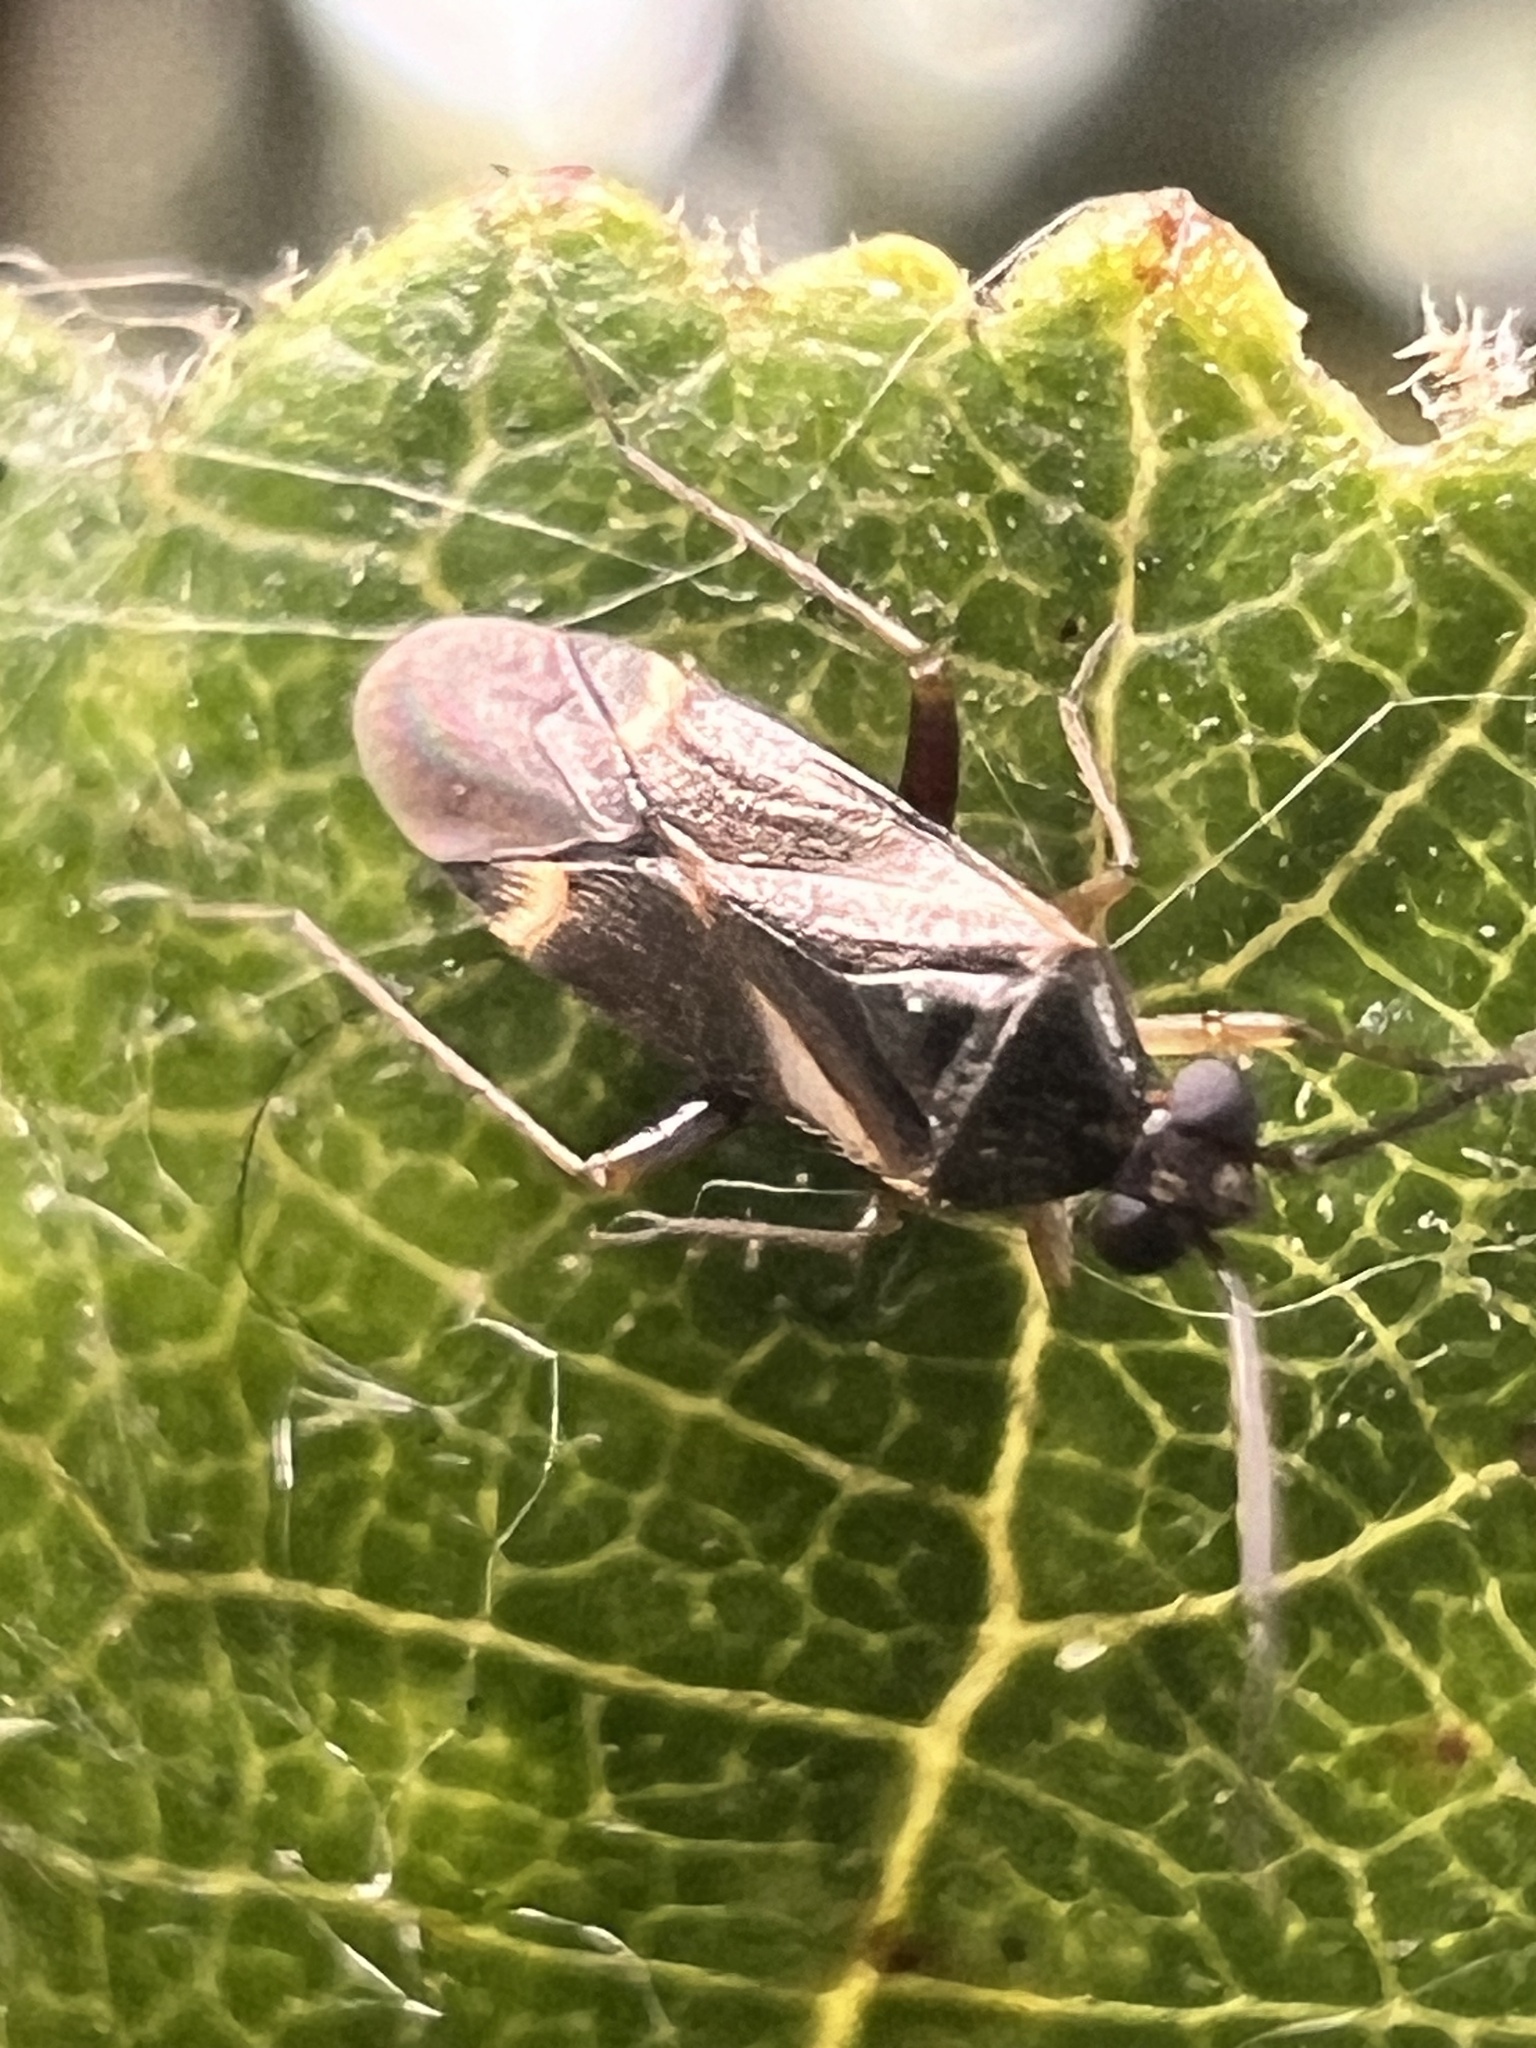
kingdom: Animalia
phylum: Arthropoda
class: Insecta
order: Hemiptera
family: Miridae
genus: Ausejanus
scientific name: Ausejanus albisignatus
